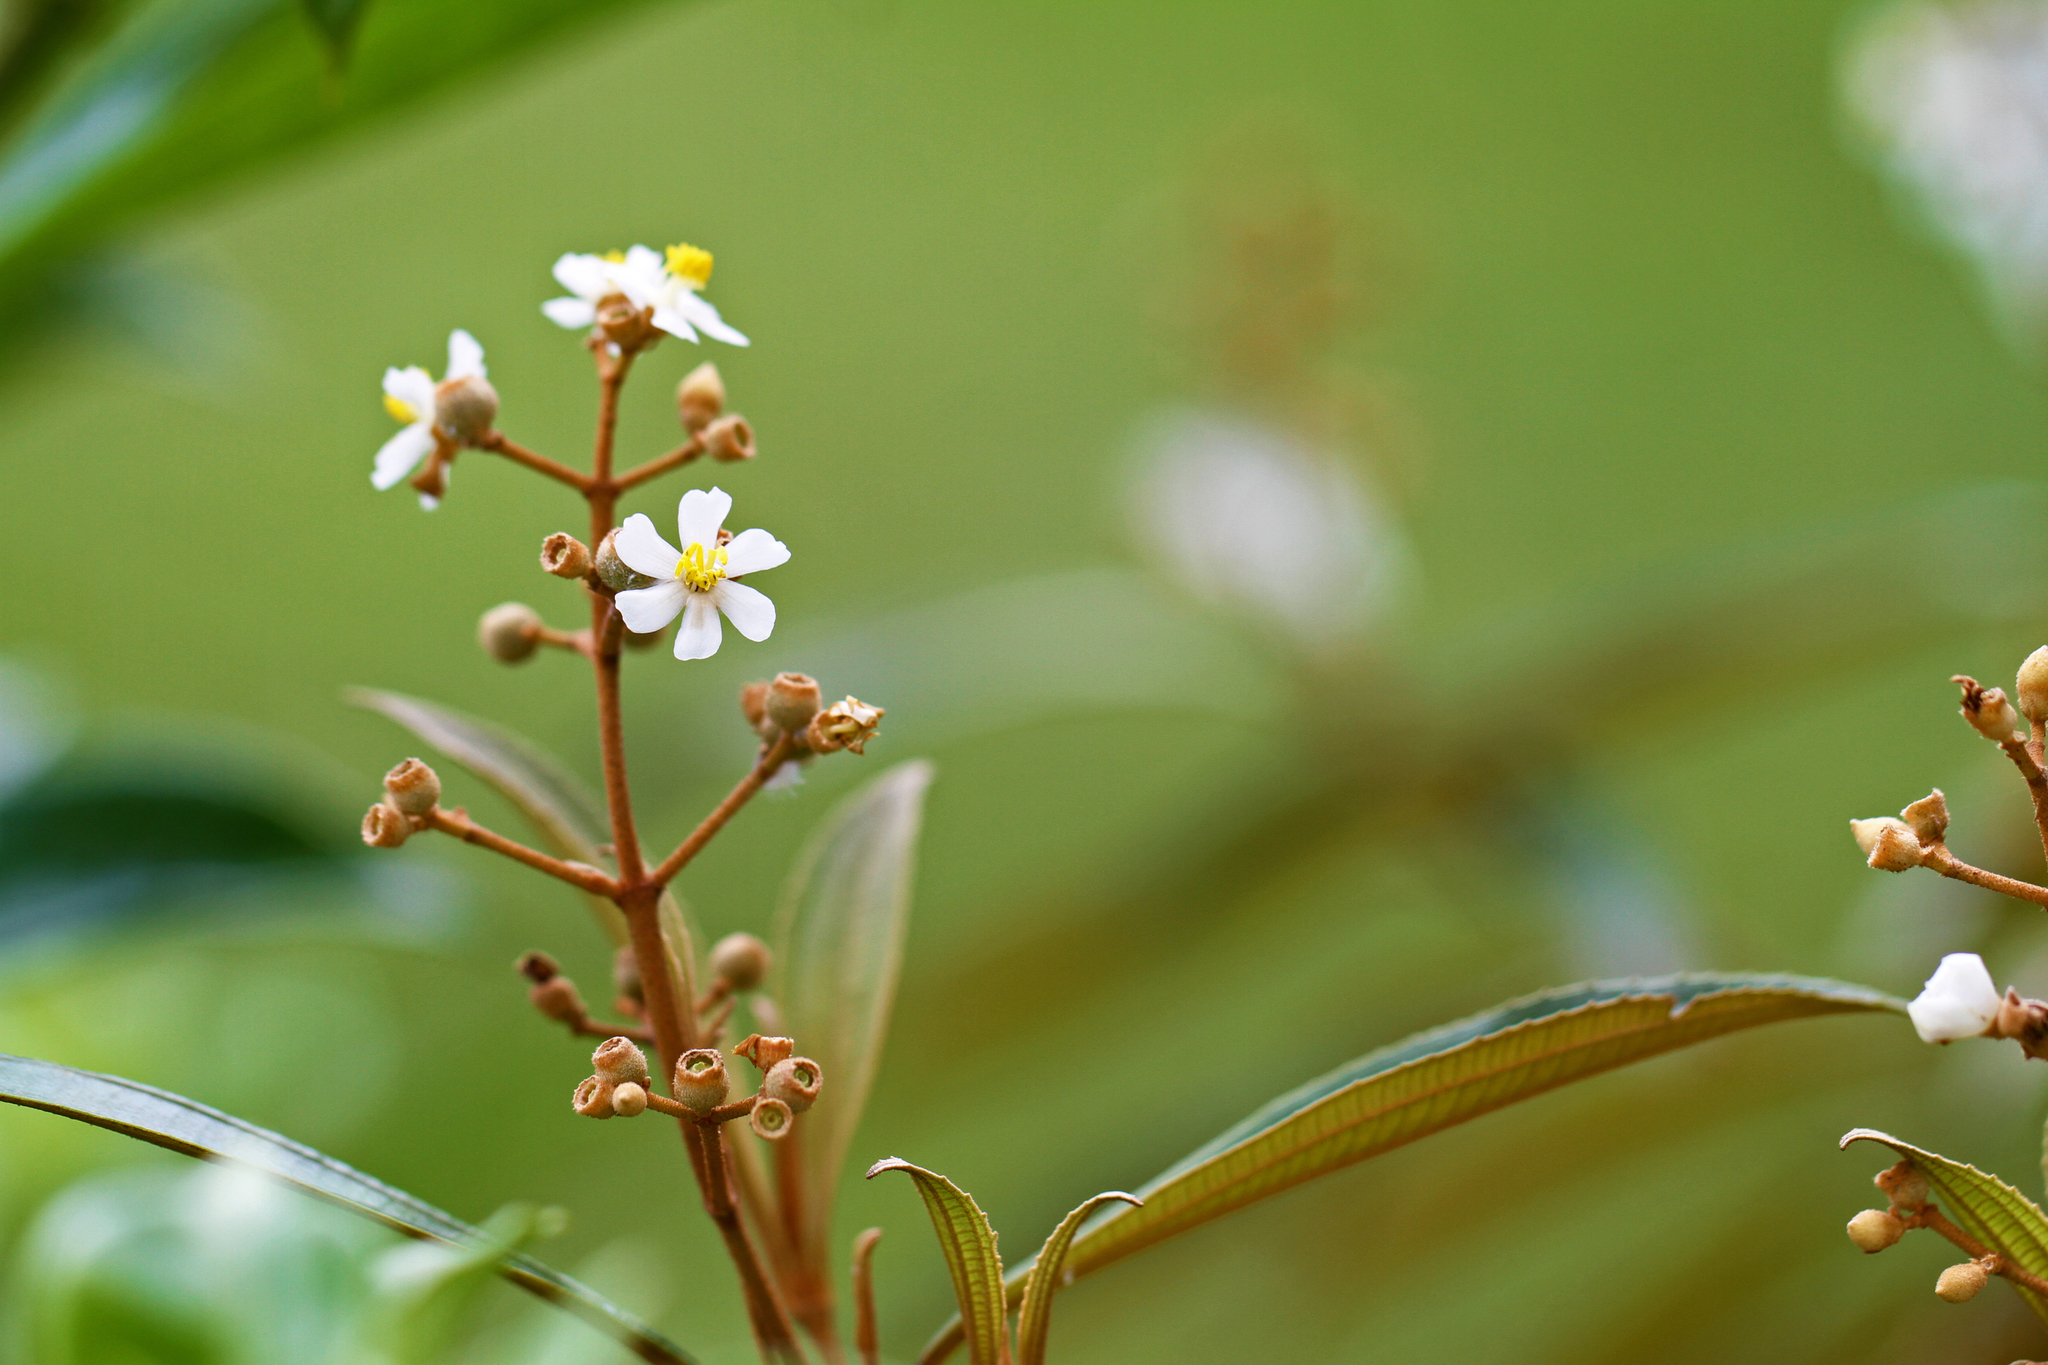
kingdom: Plantae
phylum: Tracheophyta
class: Magnoliopsida
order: Myrtales
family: Melastomataceae
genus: Miconia
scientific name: Miconia xalapensis
